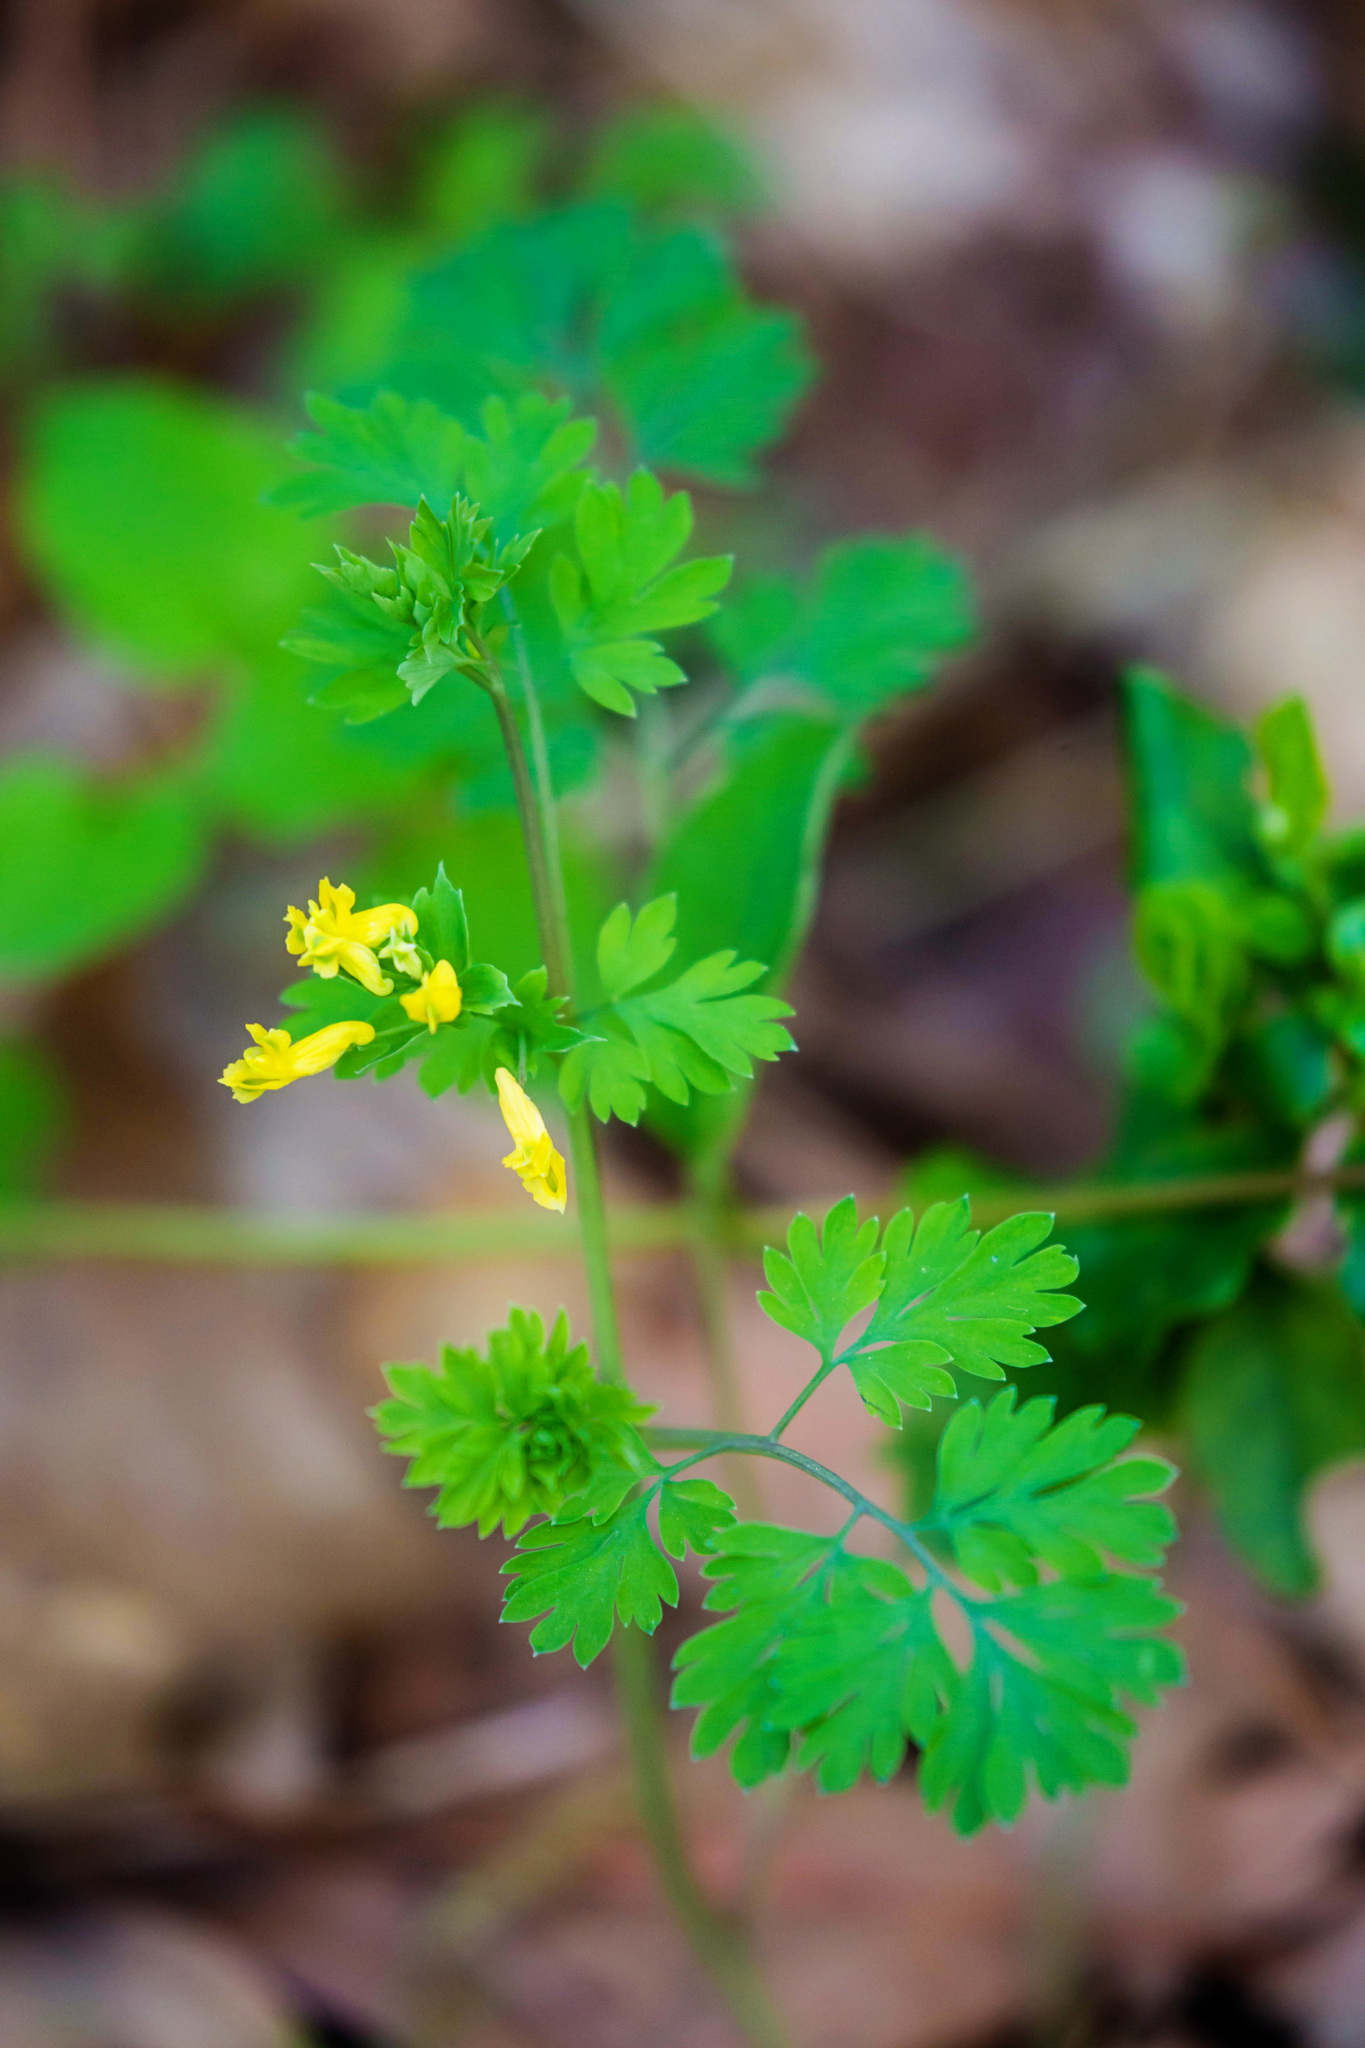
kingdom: Plantae
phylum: Tracheophyta
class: Magnoliopsida
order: Ranunculales
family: Papaveraceae
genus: Corydalis
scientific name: Corydalis flavula
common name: Yellow corydalis
